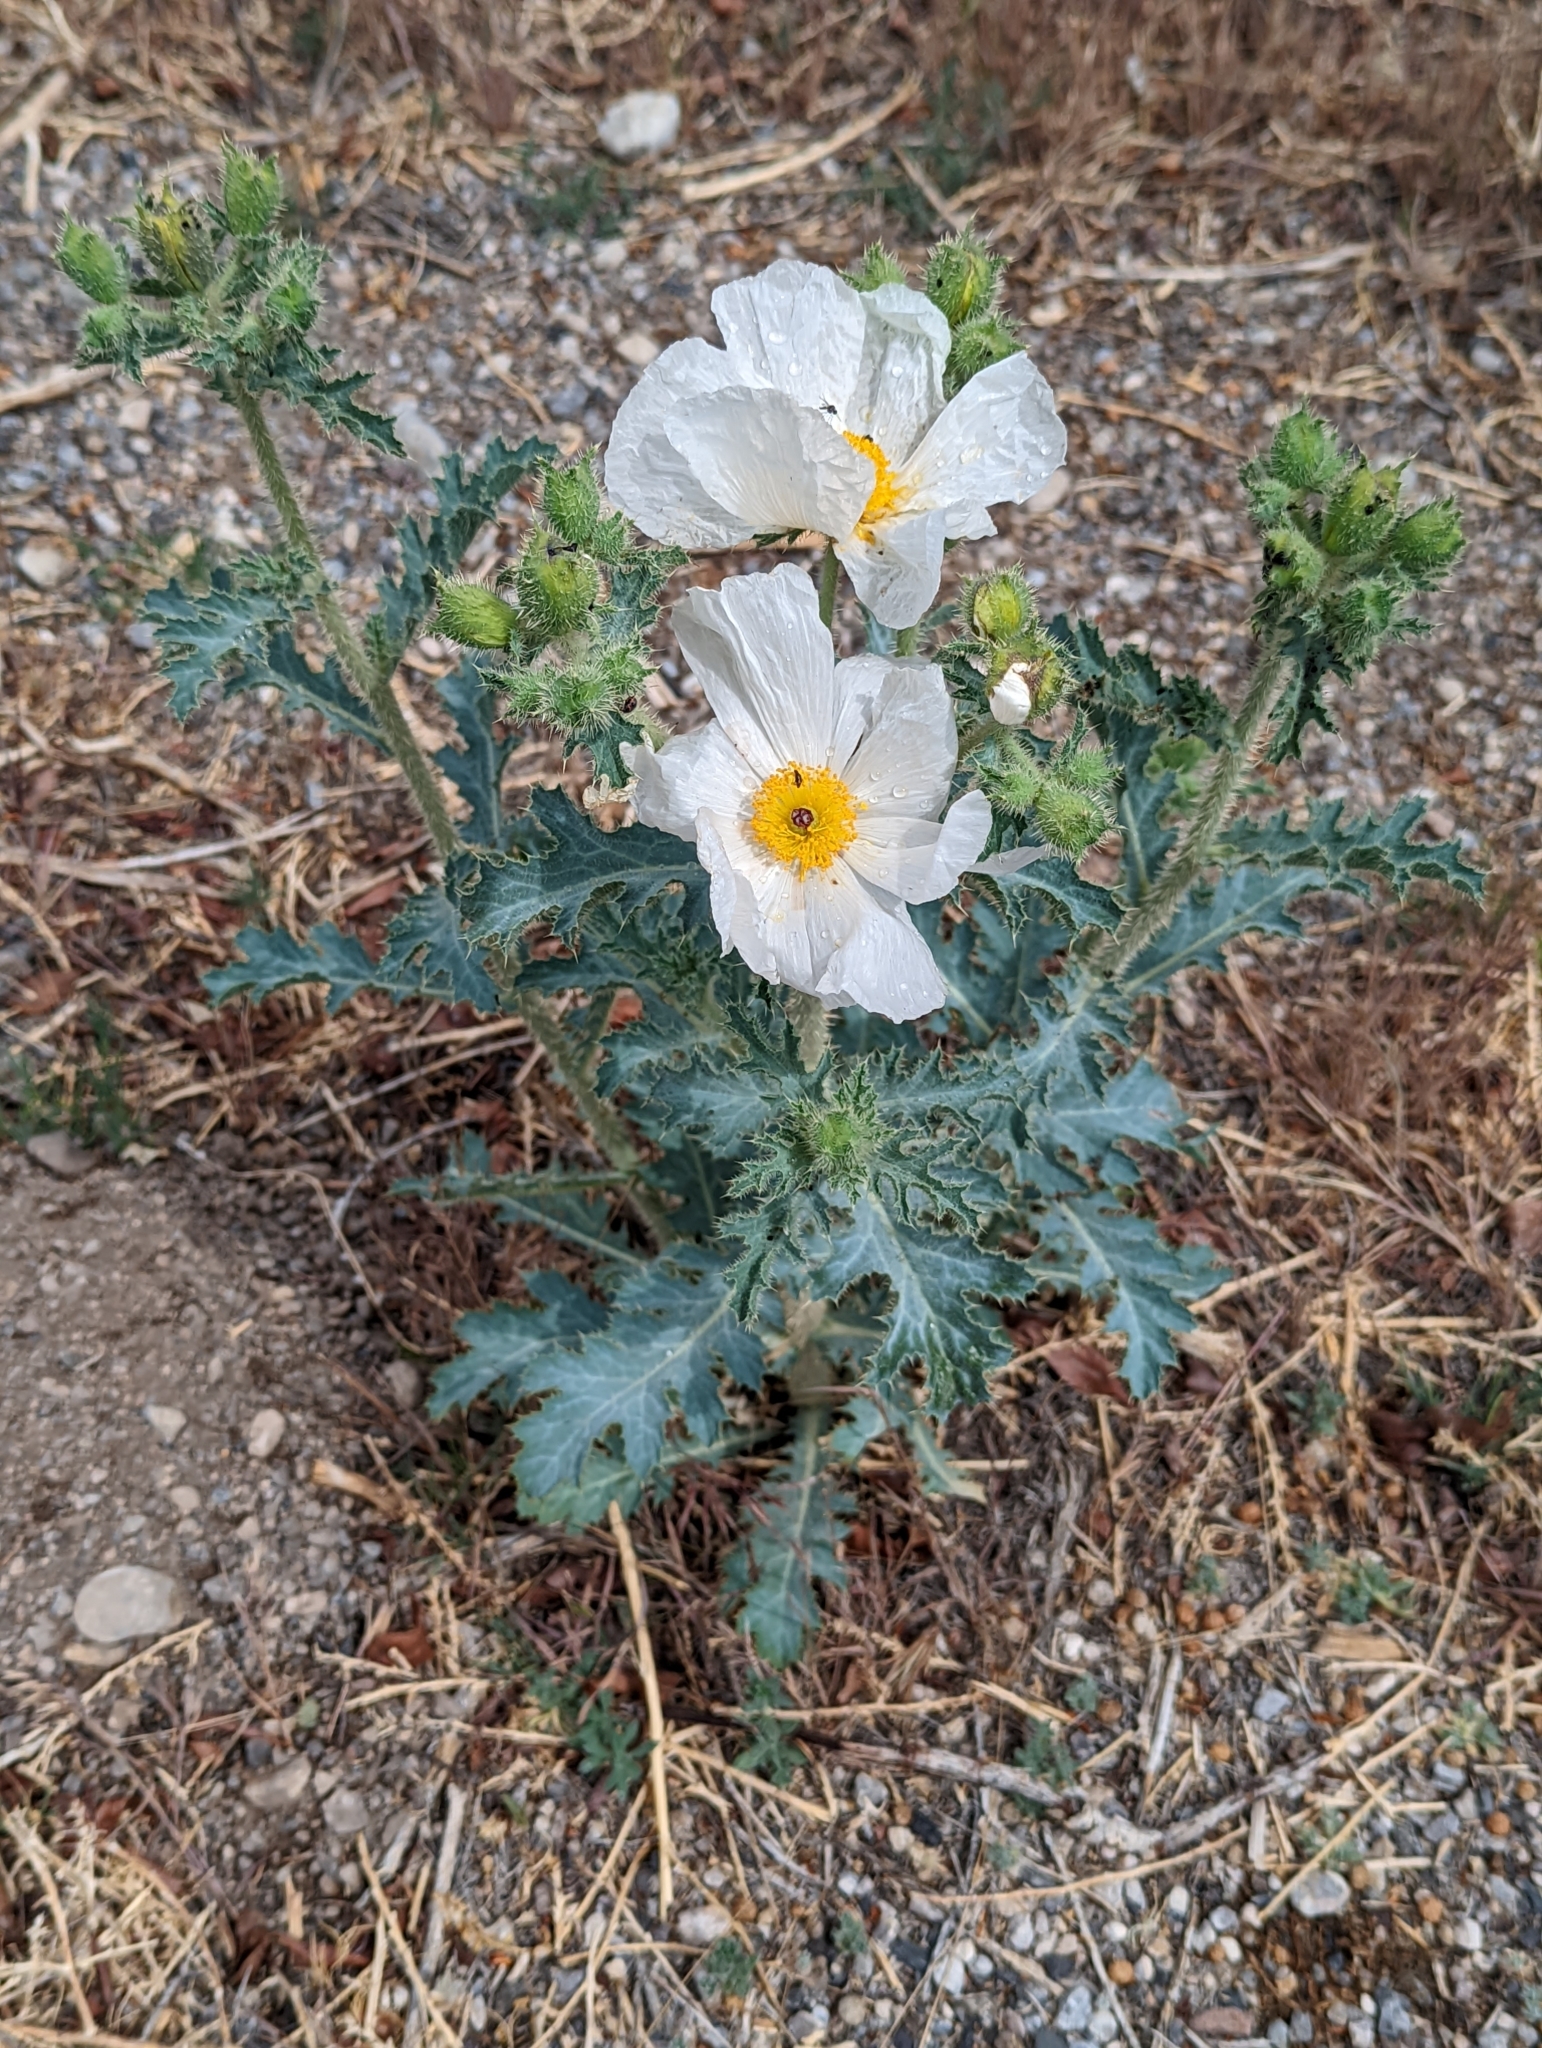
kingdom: Plantae
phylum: Tracheophyta
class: Magnoliopsida
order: Ranunculales
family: Papaveraceae
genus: Argemone
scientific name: Argemone munita
